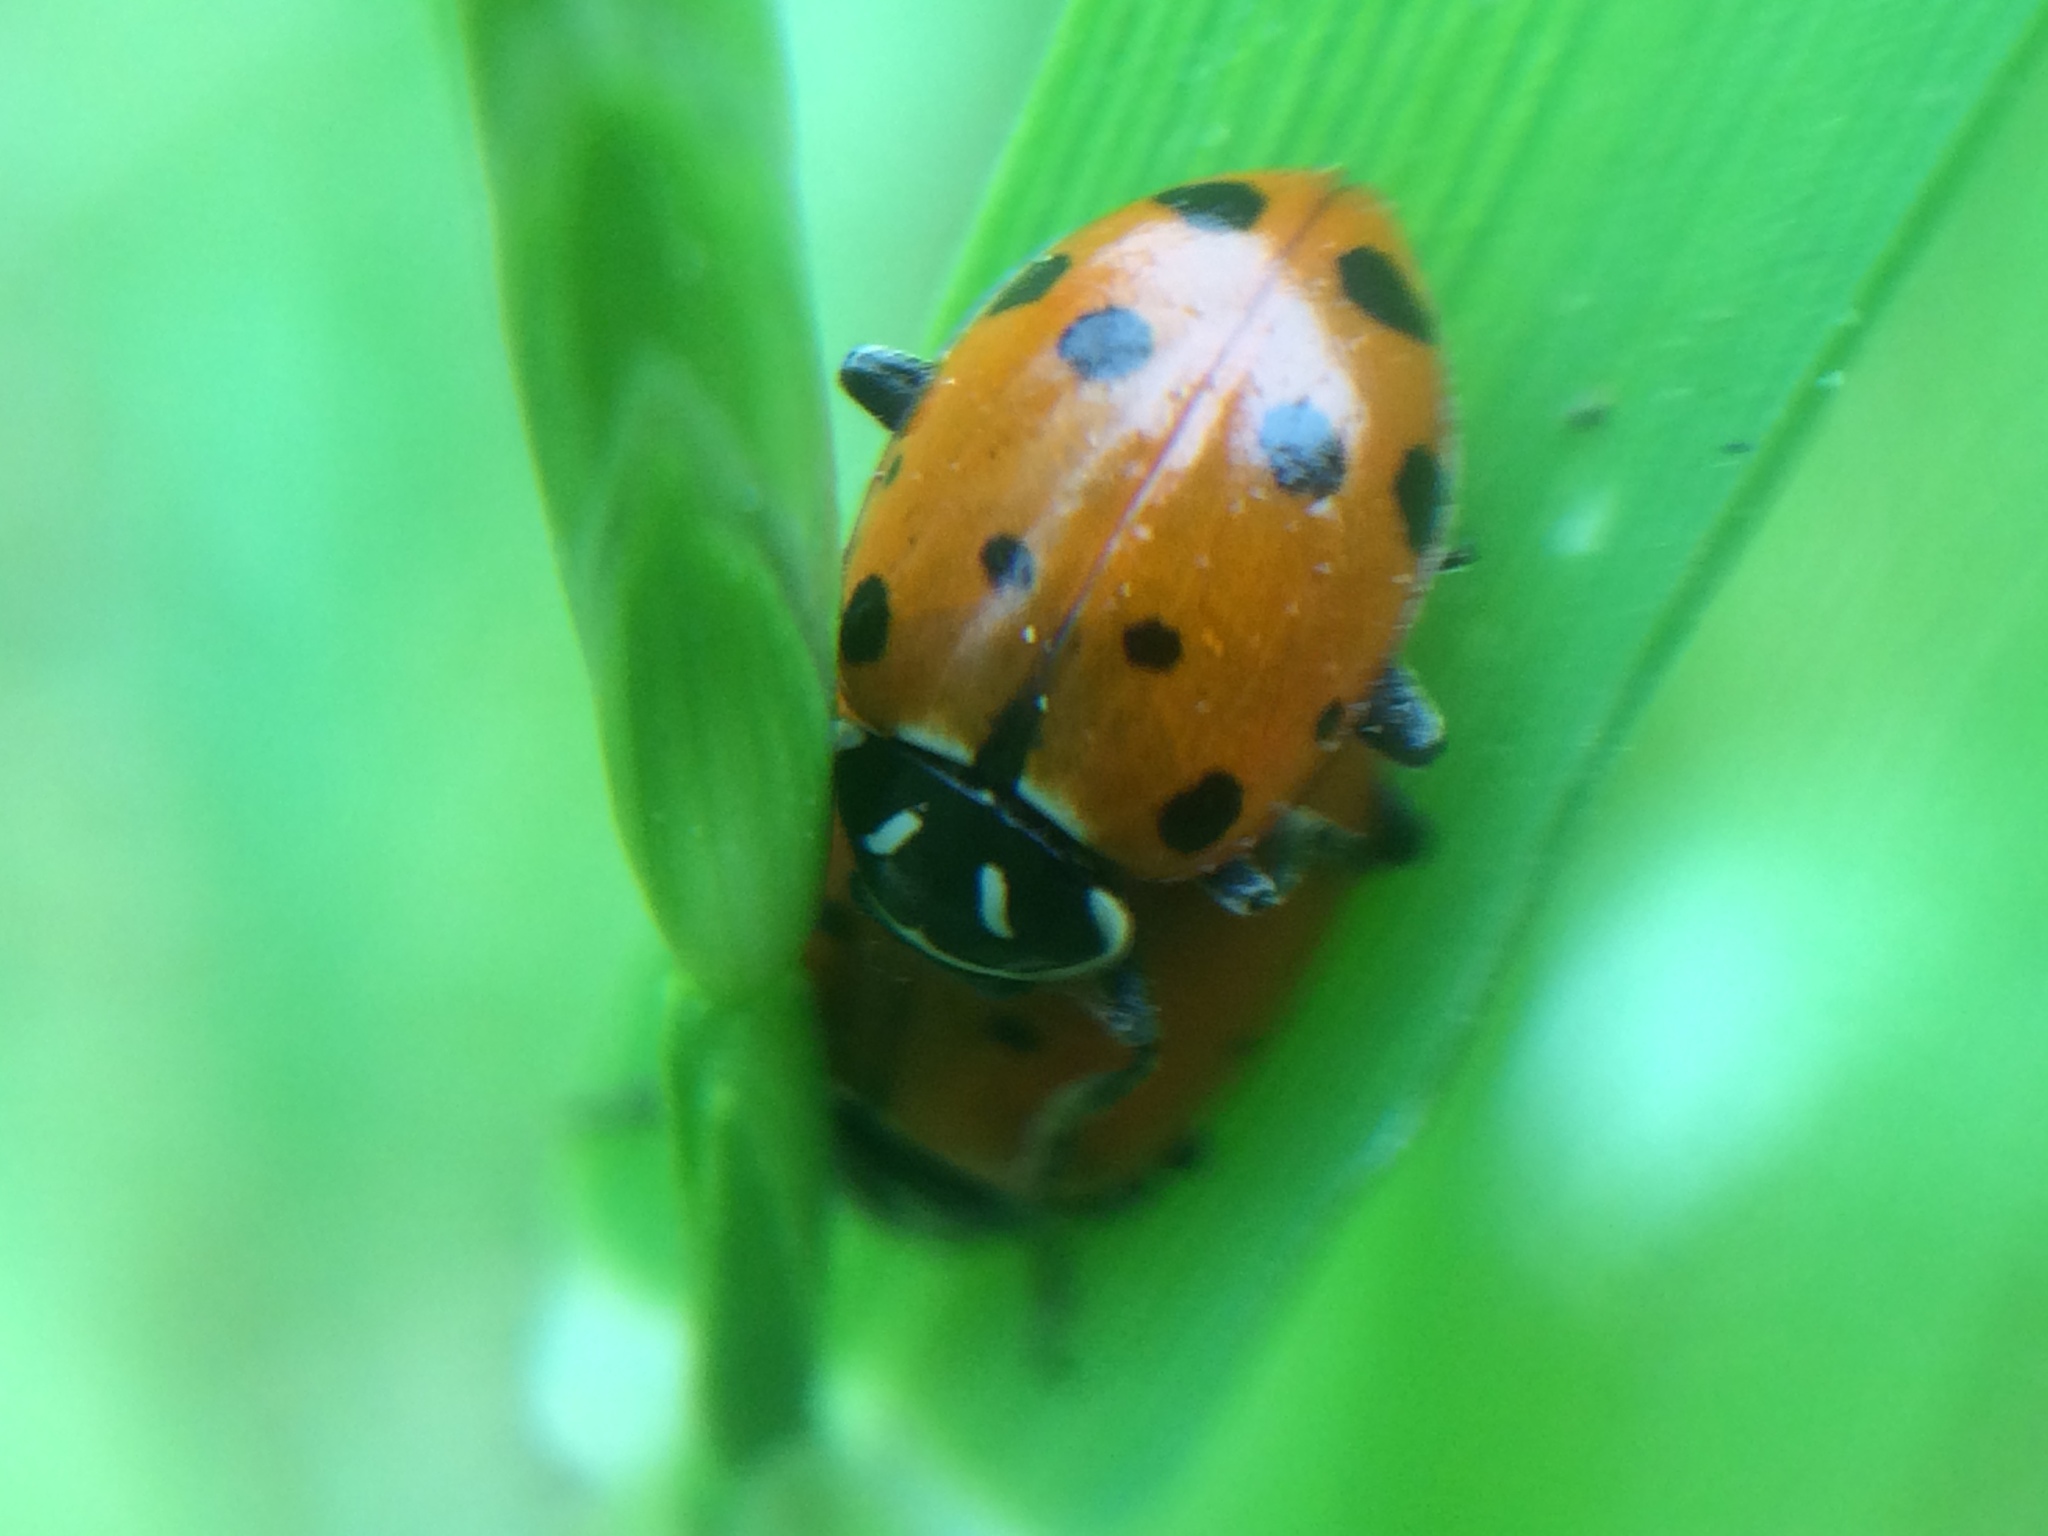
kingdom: Animalia
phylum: Arthropoda
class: Insecta
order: Coleoptera
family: Coccinellidae
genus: Hippodamia
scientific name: Hippodamia convergens
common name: Convergent lady beetle
